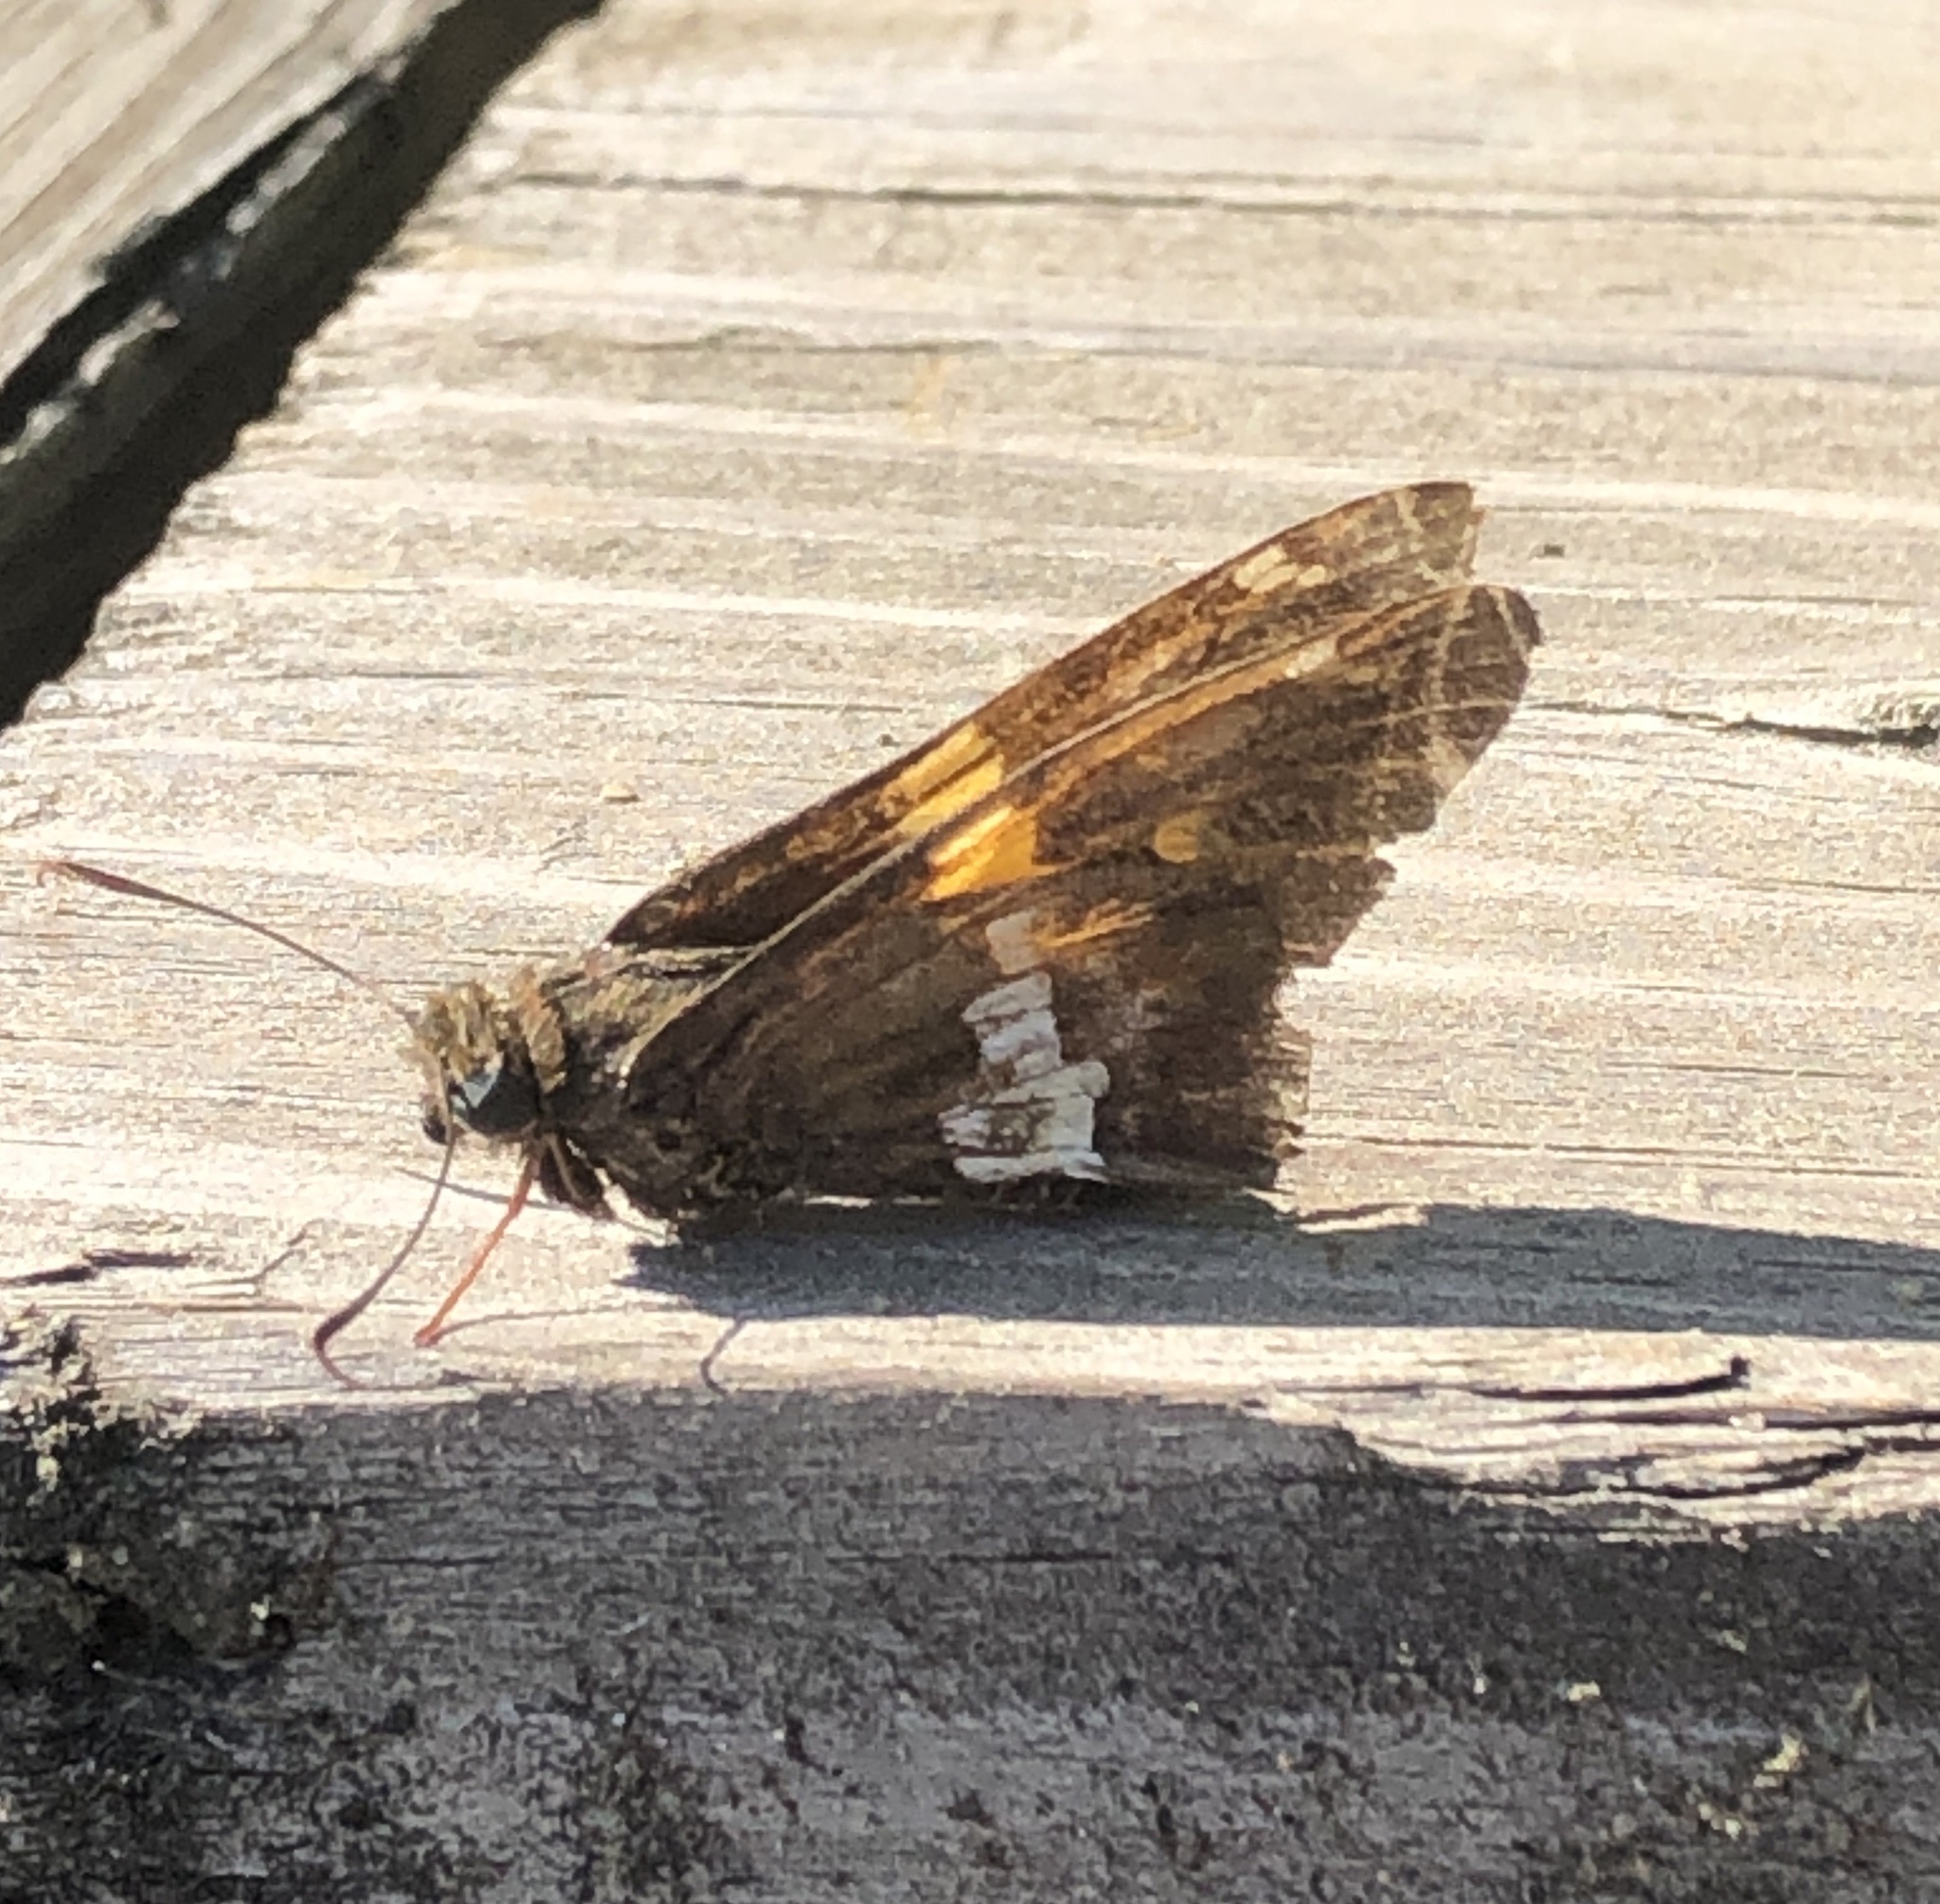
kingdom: Animalia
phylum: Arthropoda
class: Insecta
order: Lepidoptera
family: Hesperiidae
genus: Epargyreus
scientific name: Epargyreus clarus
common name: Silver-spotted skipper
